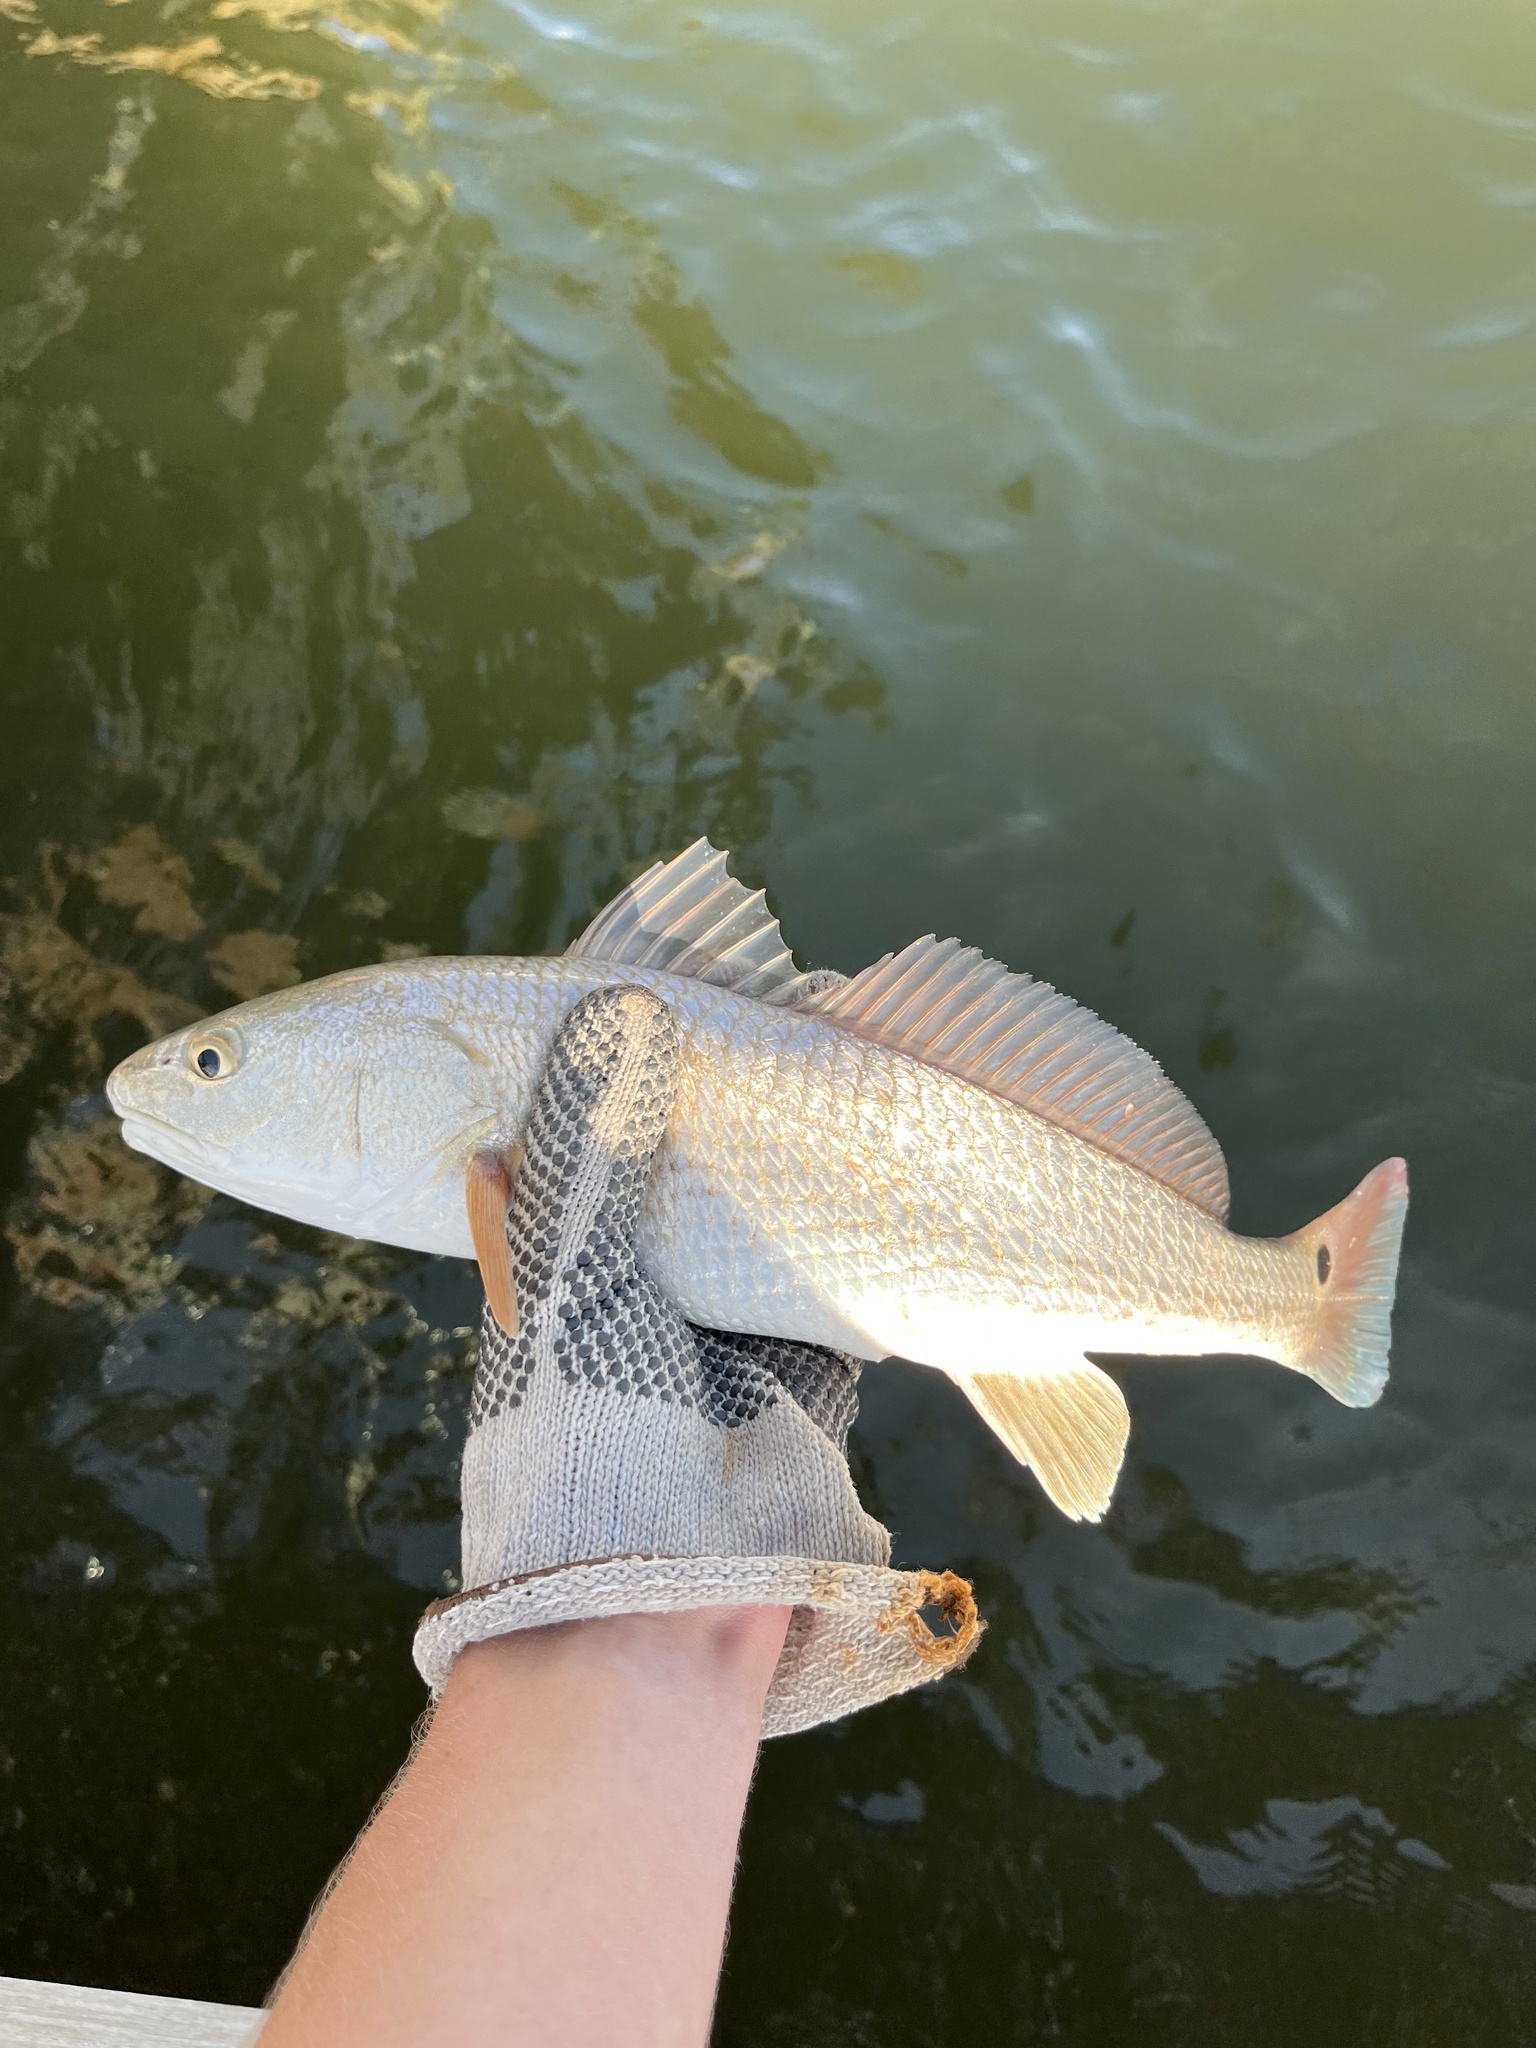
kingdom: Animalia
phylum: Chordata
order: Perciformes
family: Sciaenidae
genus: Sciaenops
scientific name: Sciaenops ocellatus
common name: Red drum
